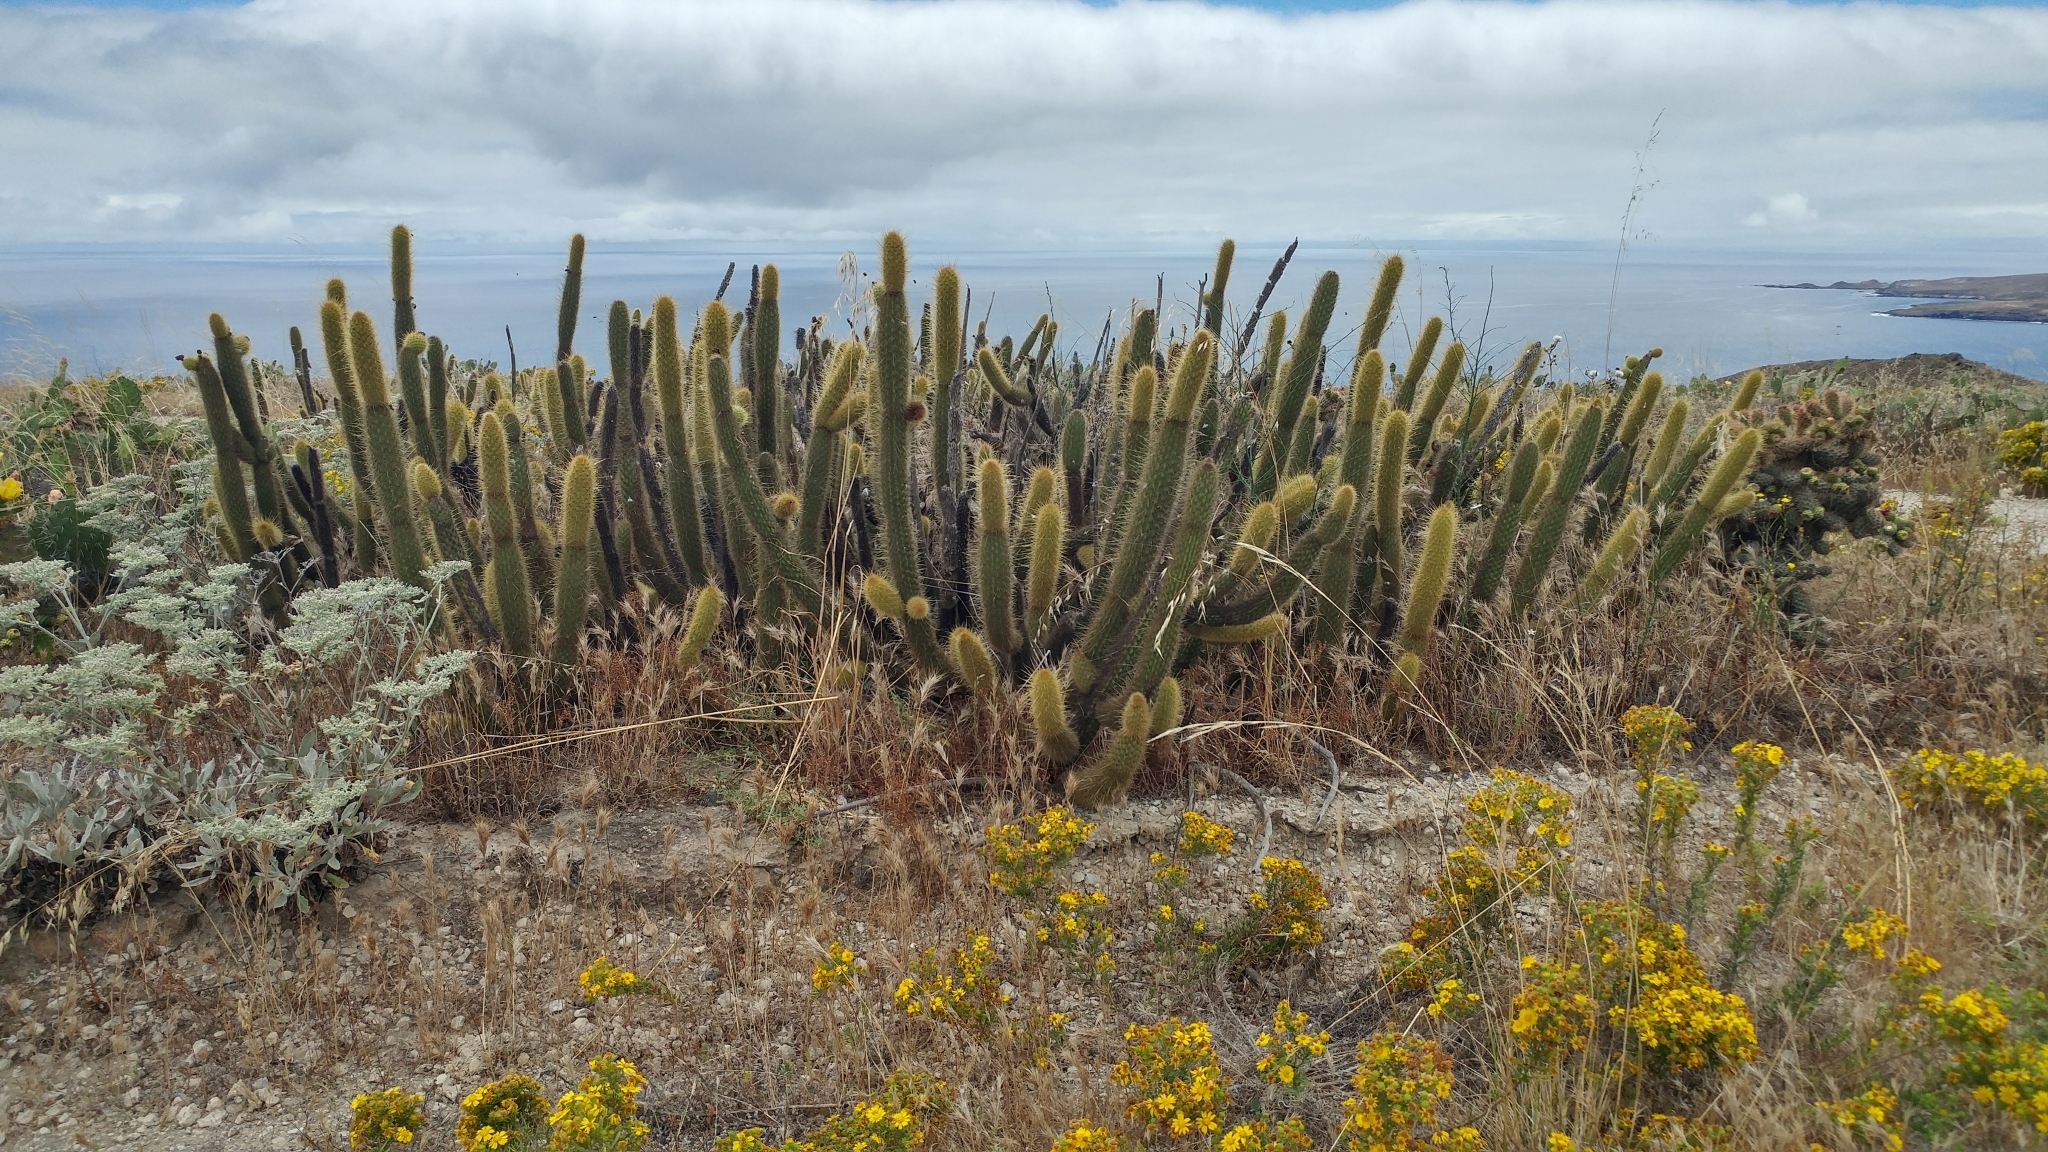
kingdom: Plantae
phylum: Tracheophyta
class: Magnoliopsida
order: Caryophyllales
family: Cactaceae
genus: Bergerocactus
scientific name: Bergerocactus emoryi
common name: Golden snakecactus
